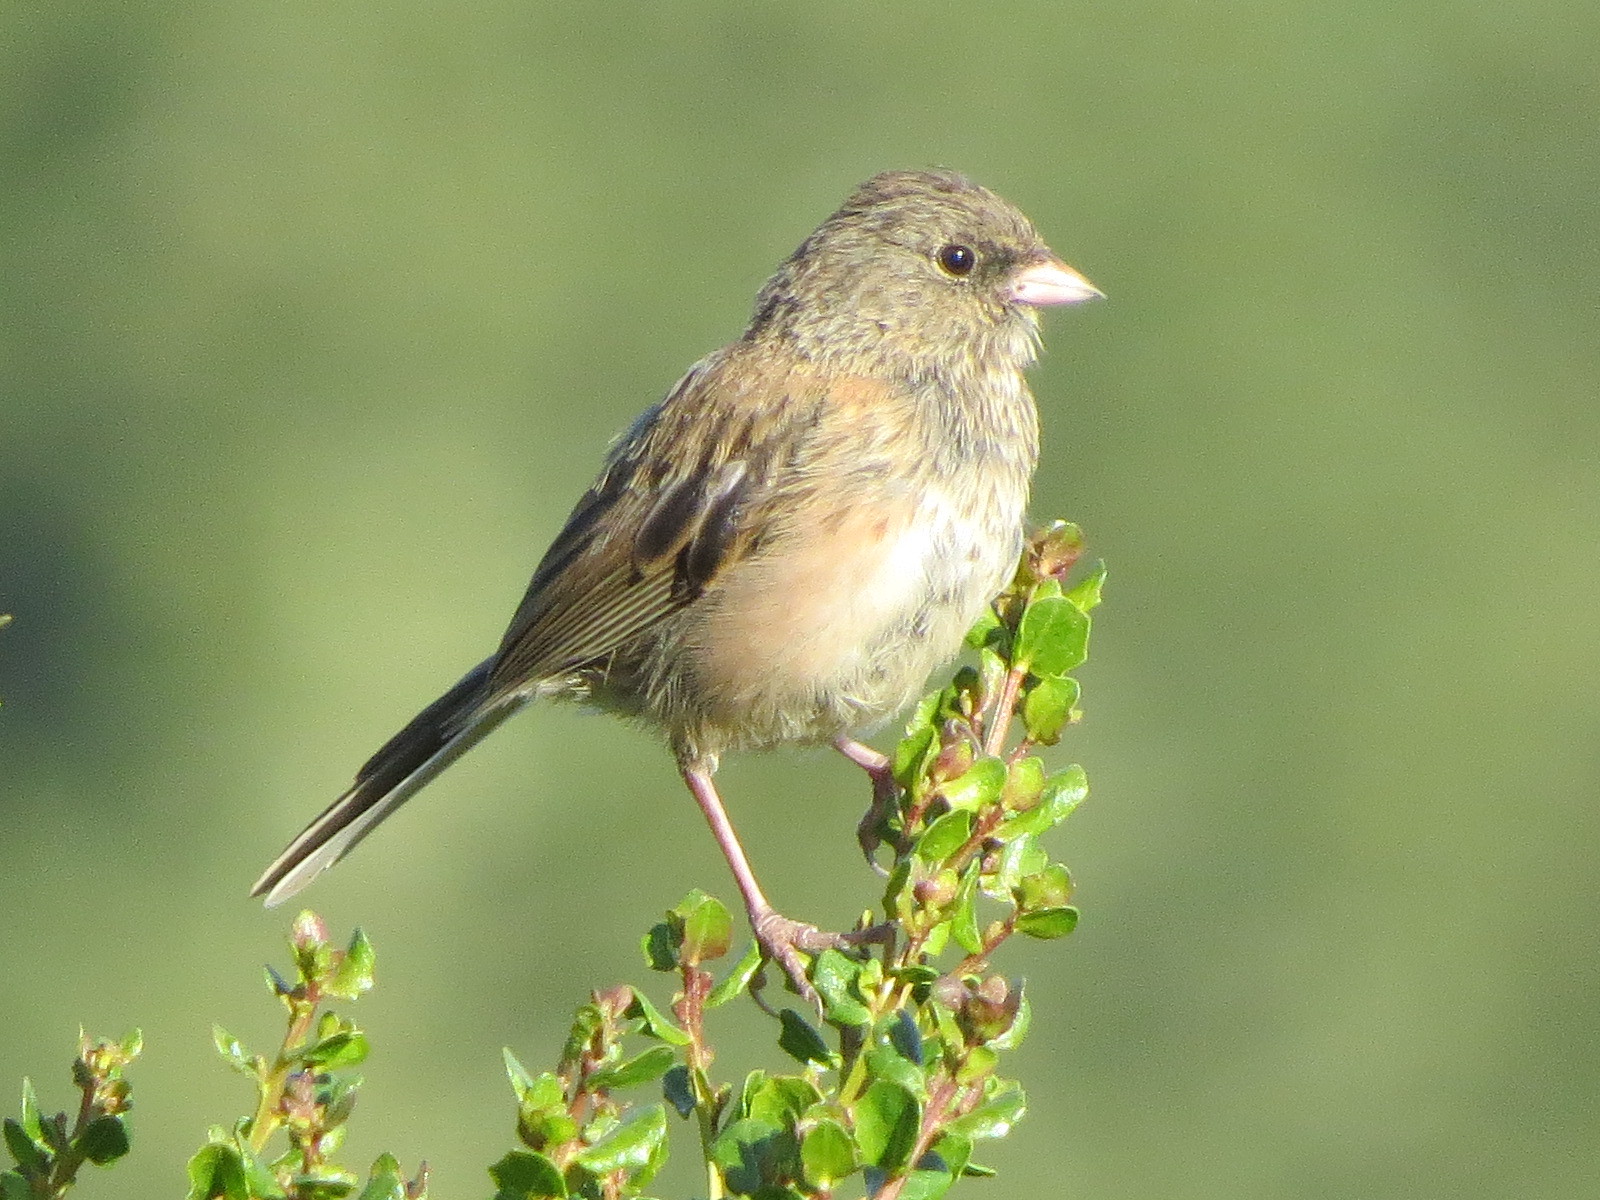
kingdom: Animalia
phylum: Chordata
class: Aves
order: Passeriformes
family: Passerellidae
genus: Junco
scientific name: Junco hyemalis
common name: Dark-eyed junco
